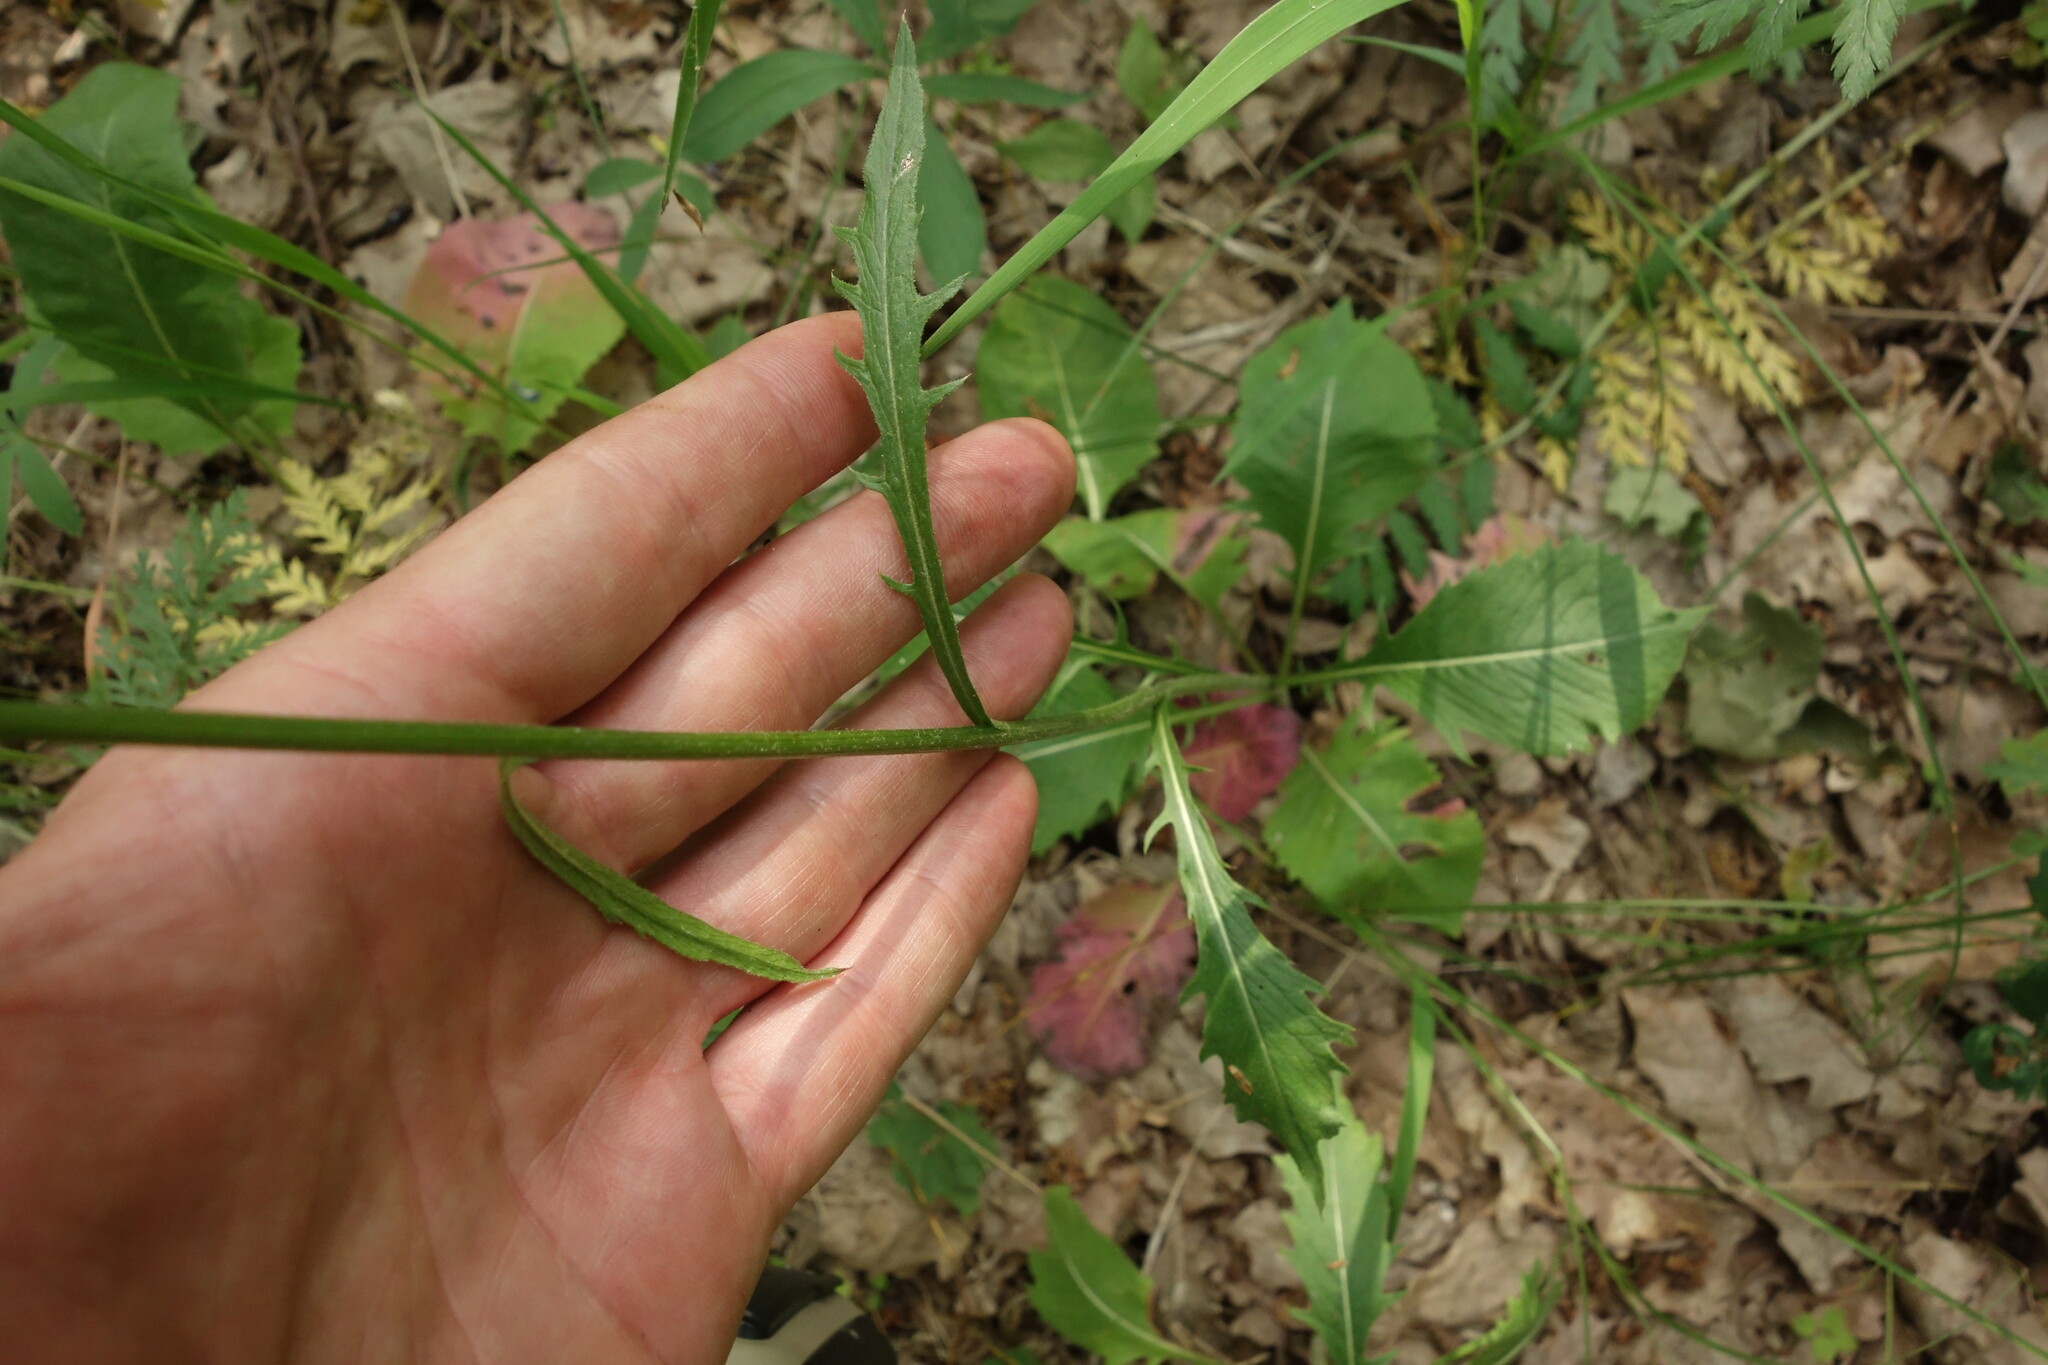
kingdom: Plantae
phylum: Tracheophyta
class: Magnoliopsida
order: Asterales
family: Asteraceae
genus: Klasea
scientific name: Klasea lycopifolia
